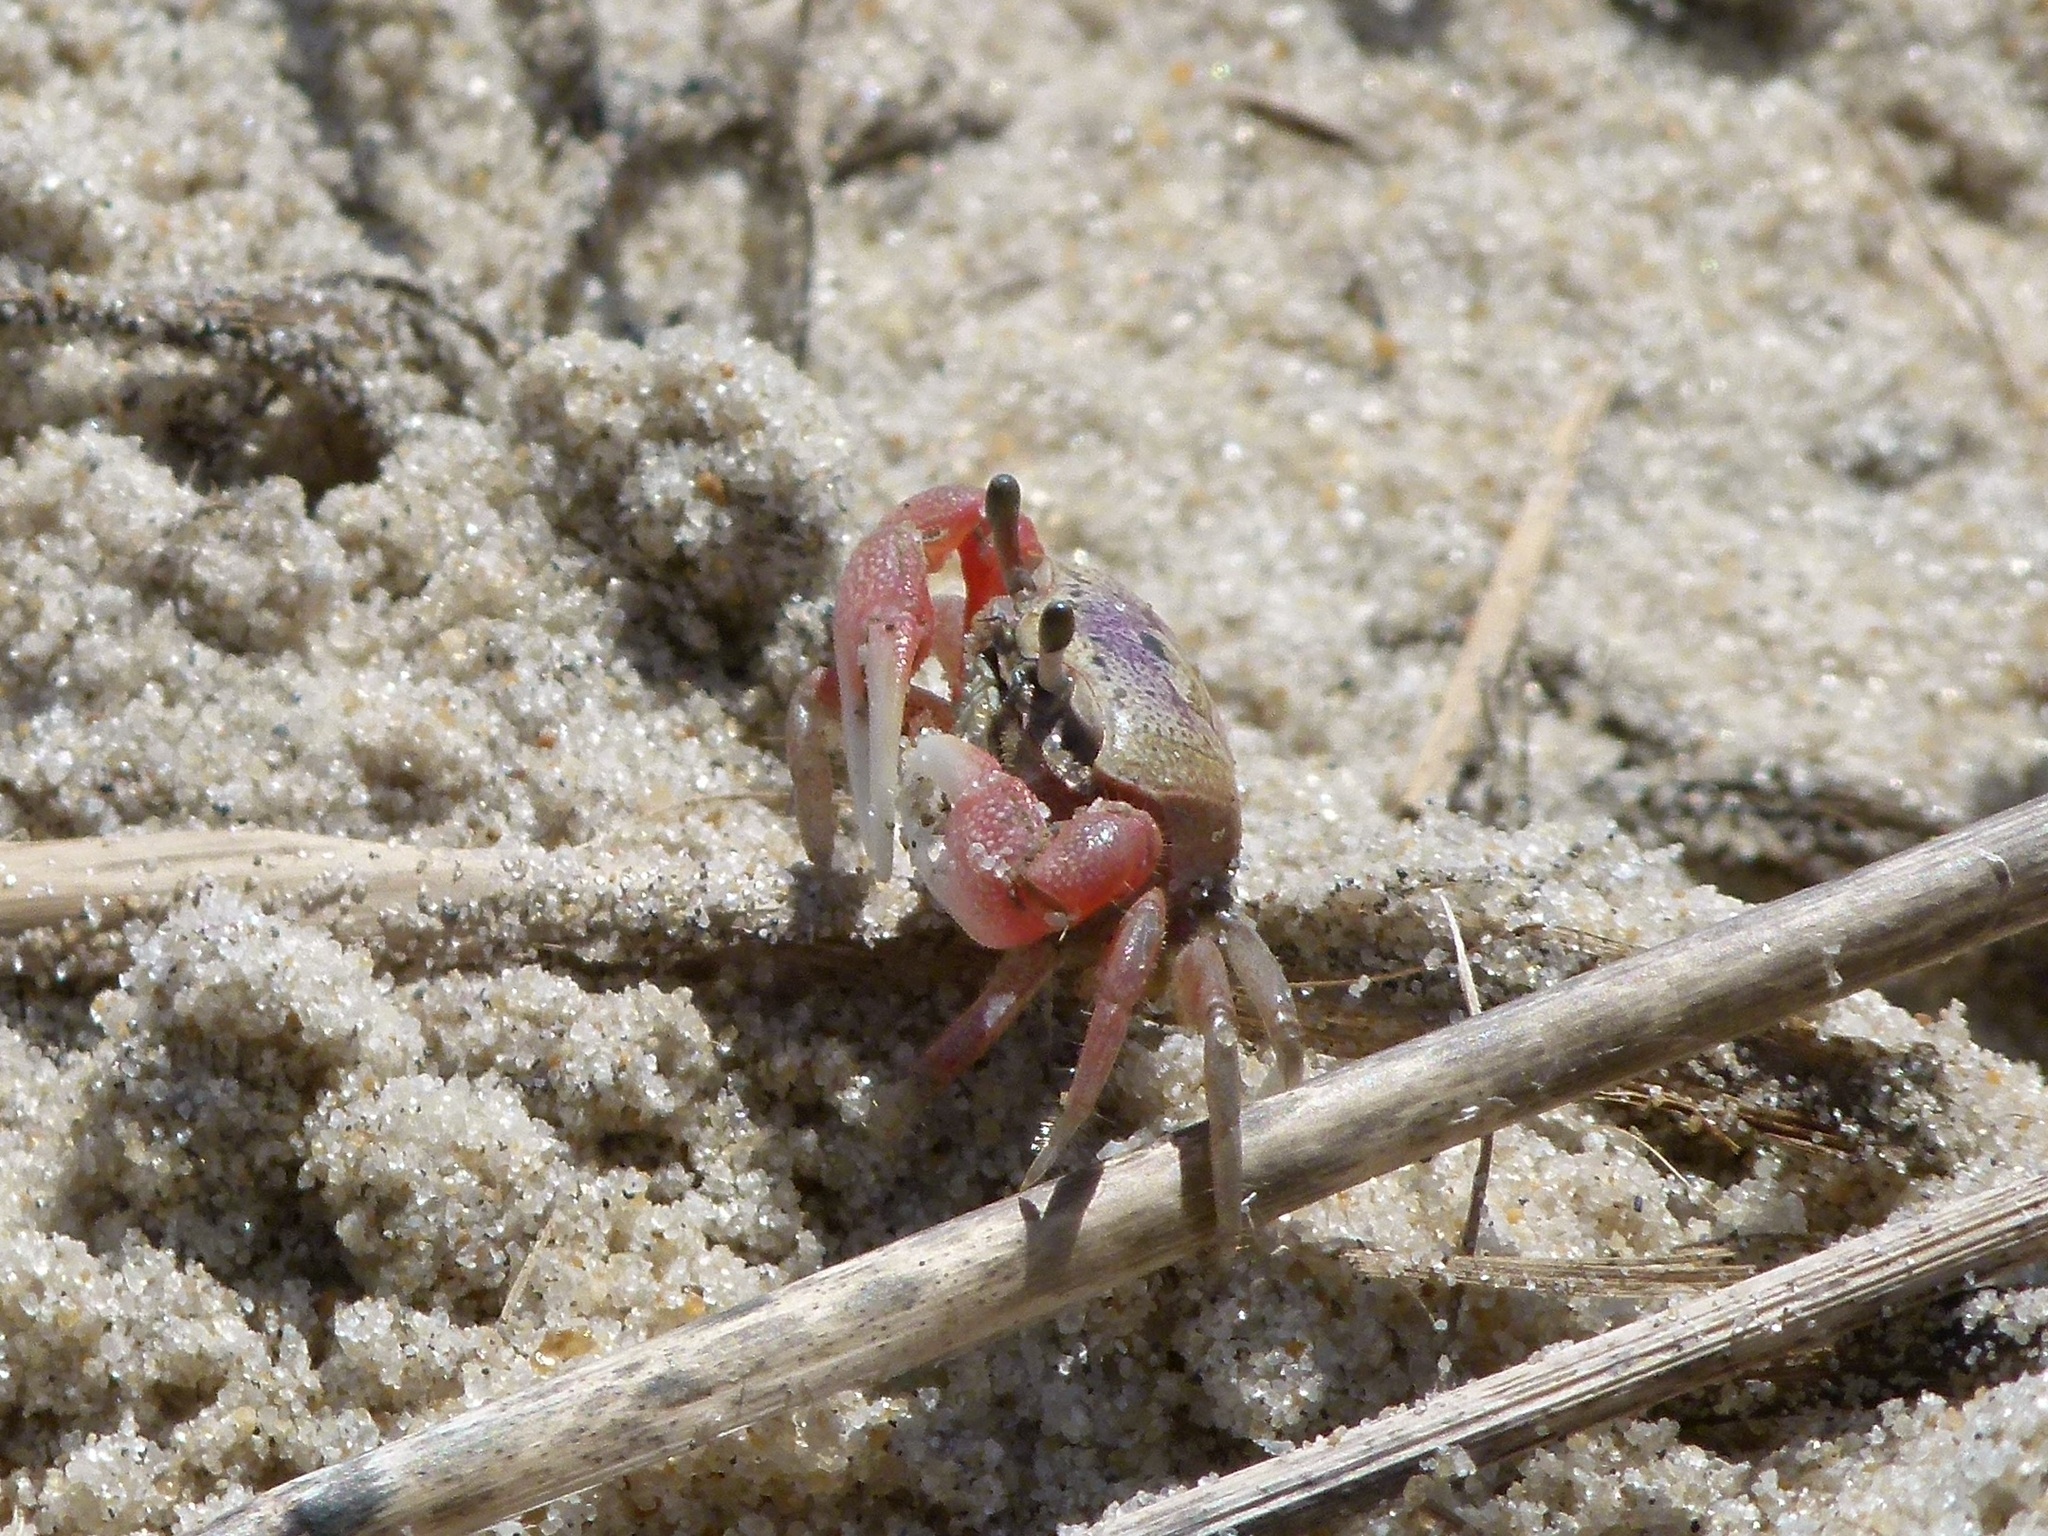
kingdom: Animalia
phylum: Arthropoda
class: Malacostraca
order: Decapoda
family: Ocypodidae
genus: Leptuca
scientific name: Leptuca pugilator
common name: Atlantic sand fiddler crab
